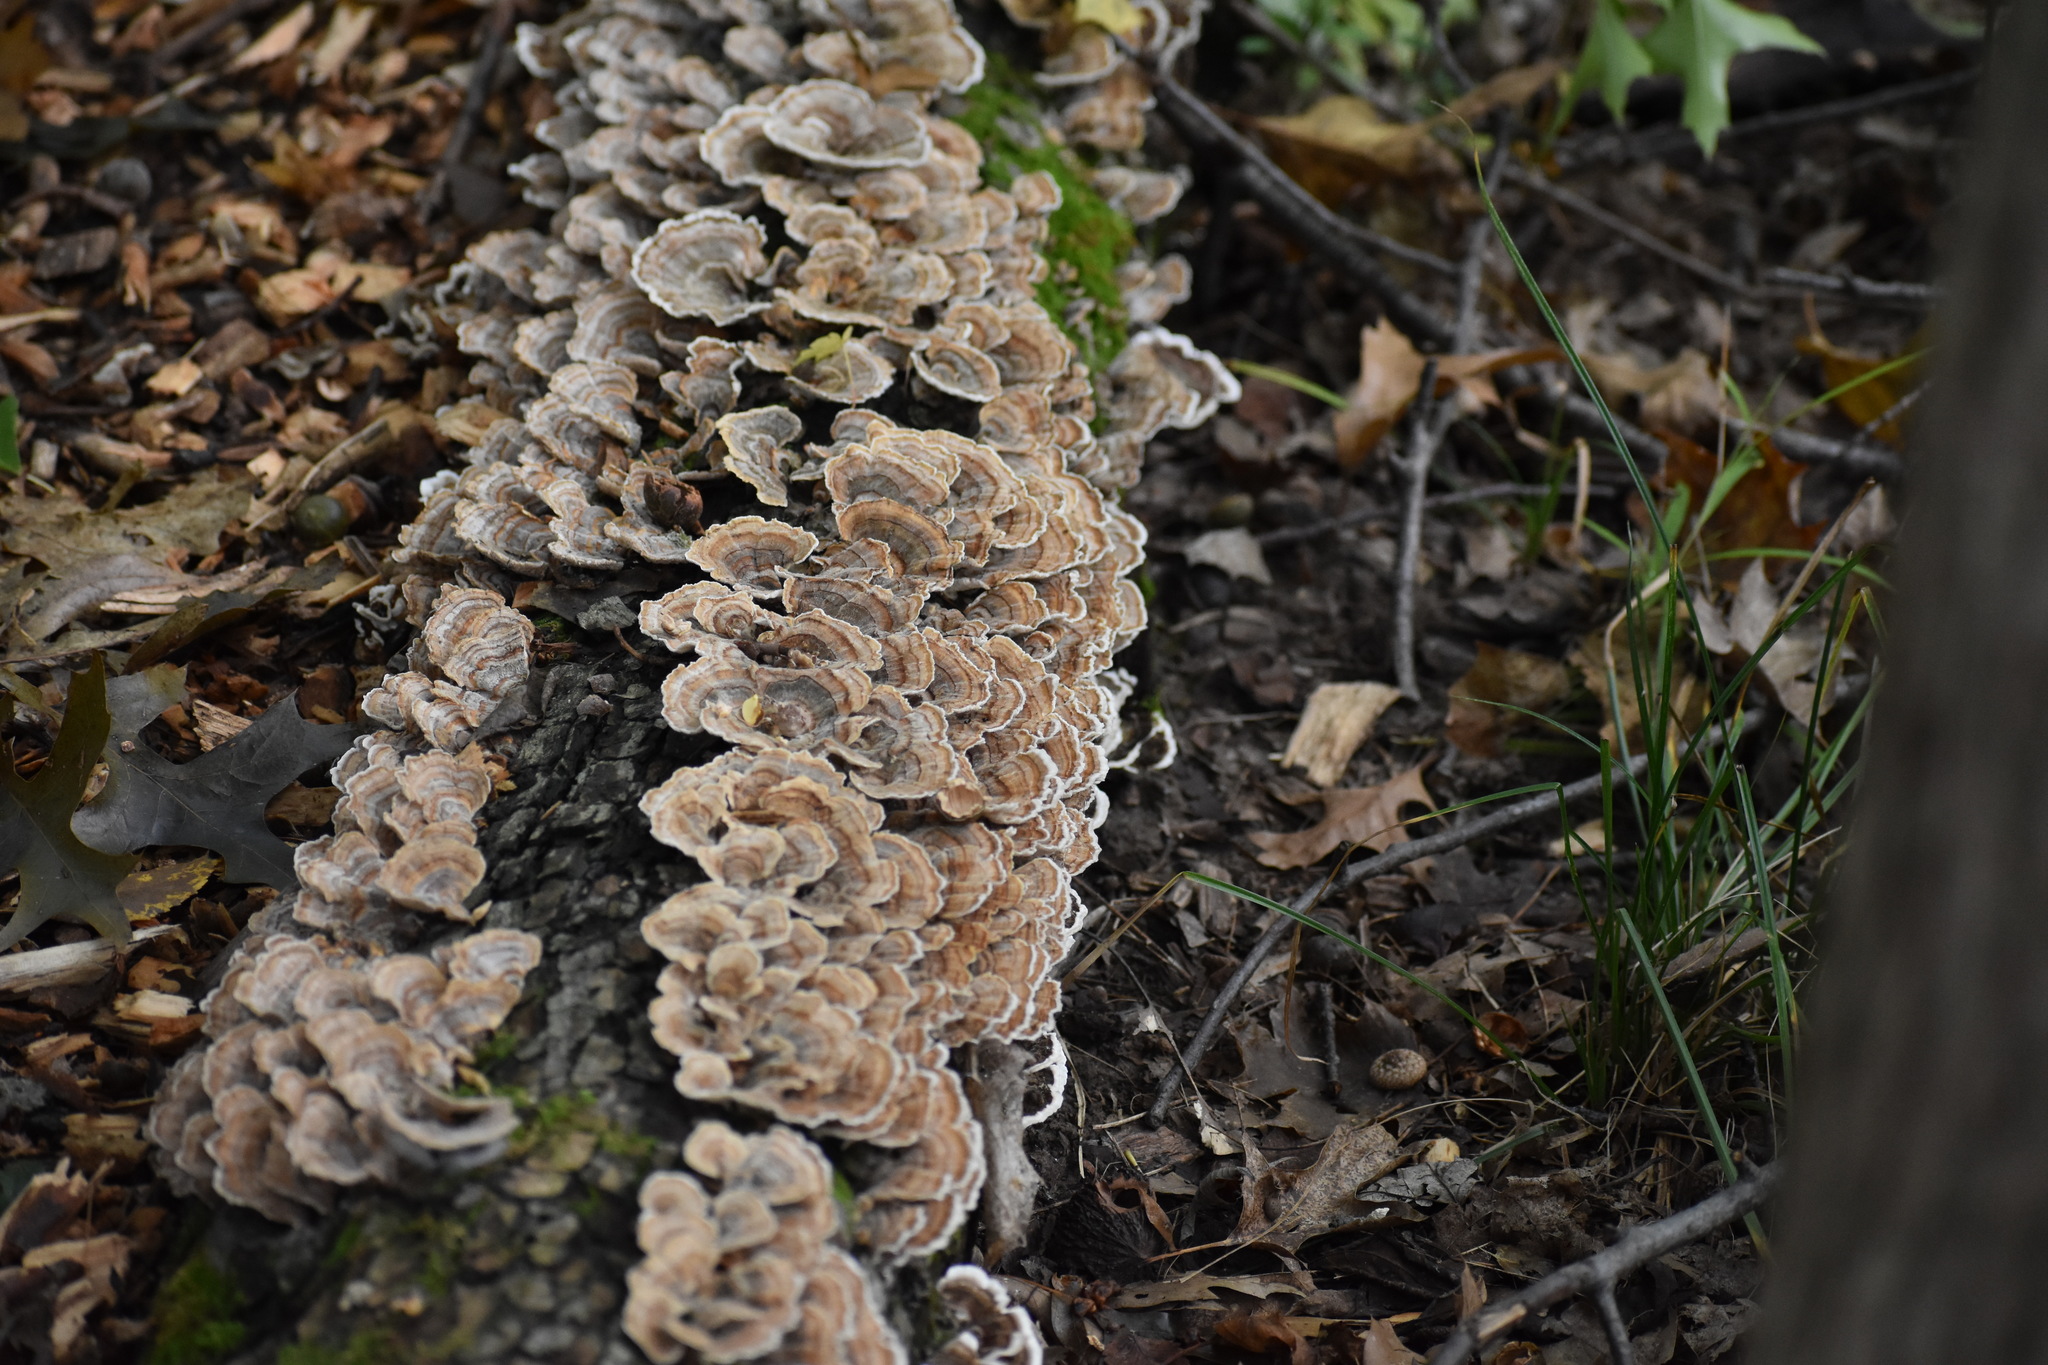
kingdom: Fungi
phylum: Basidiomycota
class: Agaricomycetes
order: Polyporales
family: Polyporaceae
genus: Trametes
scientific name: Trametes versicolor
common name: Turkeytail
